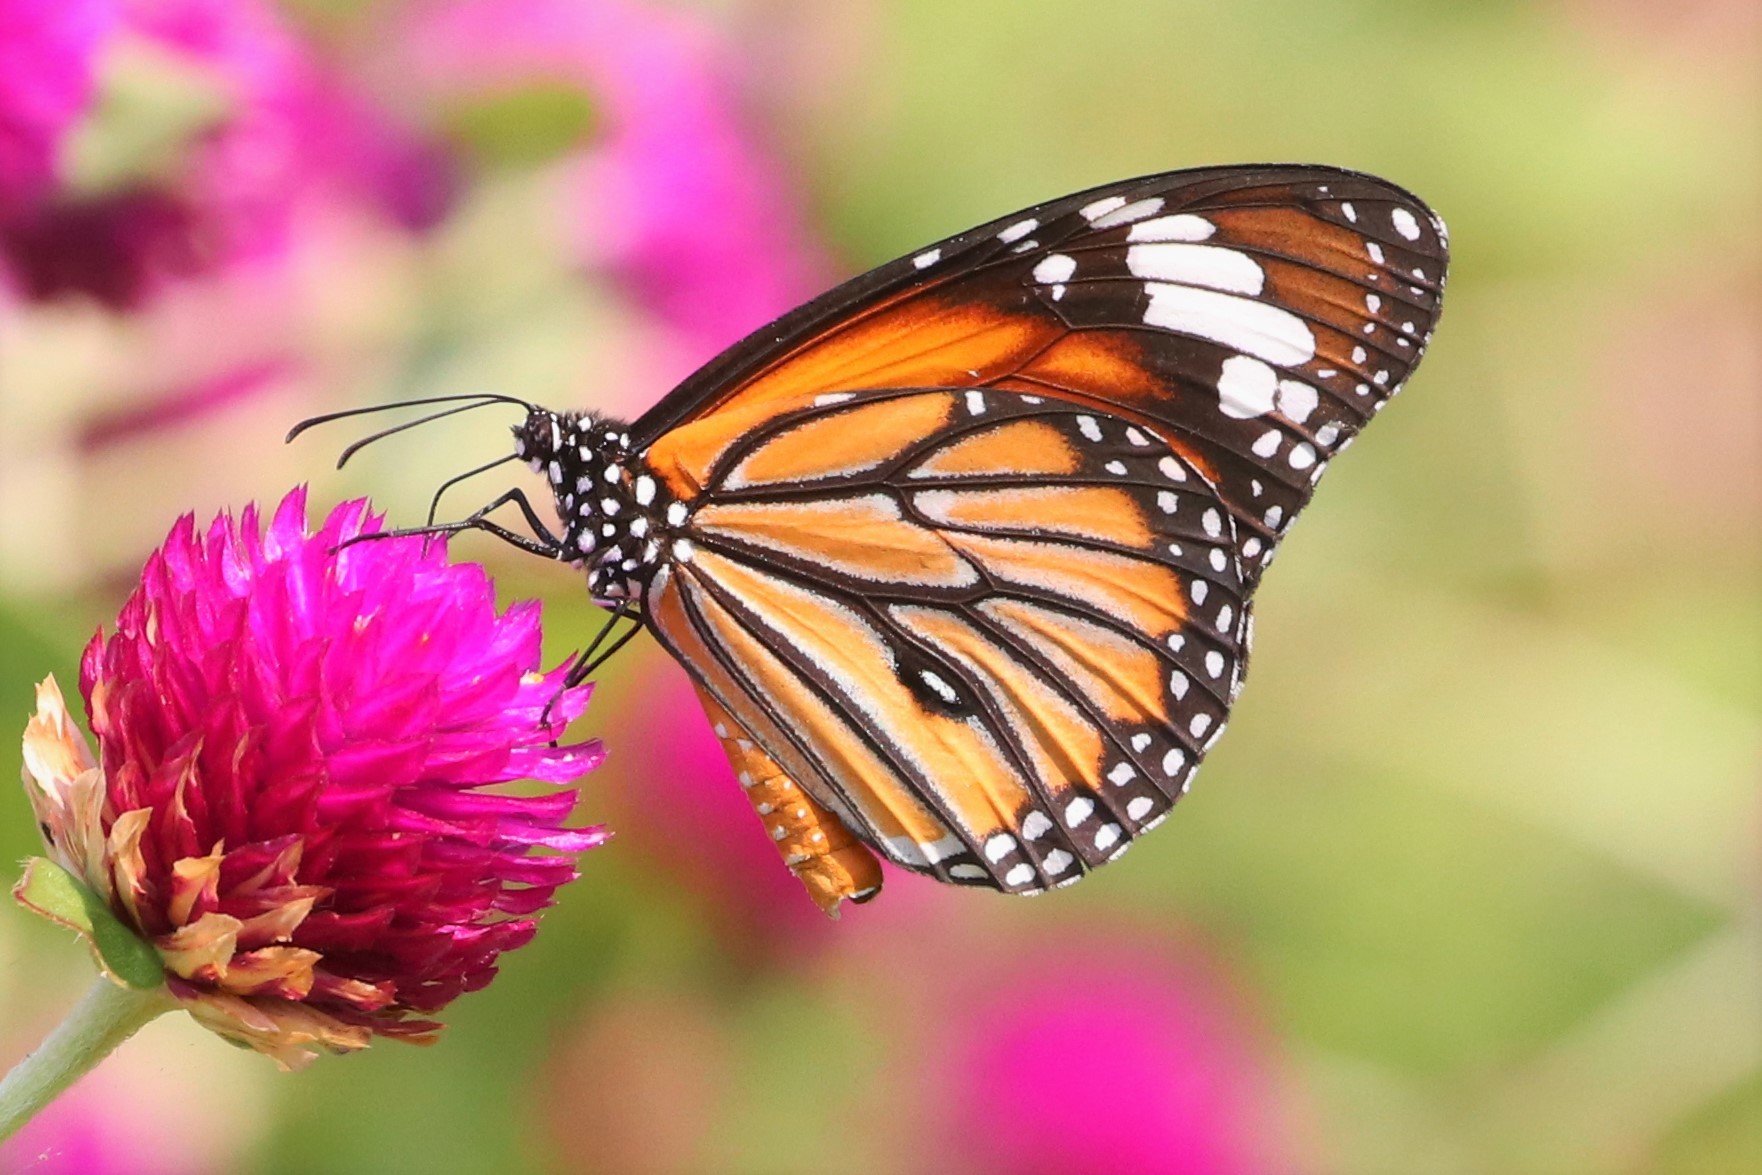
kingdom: Animalia
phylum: Arthropoda
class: Insecta
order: Lepidoptera
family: Nymphalidae
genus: Danaus
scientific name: Danaus genutia
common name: Common tiger butterfly
